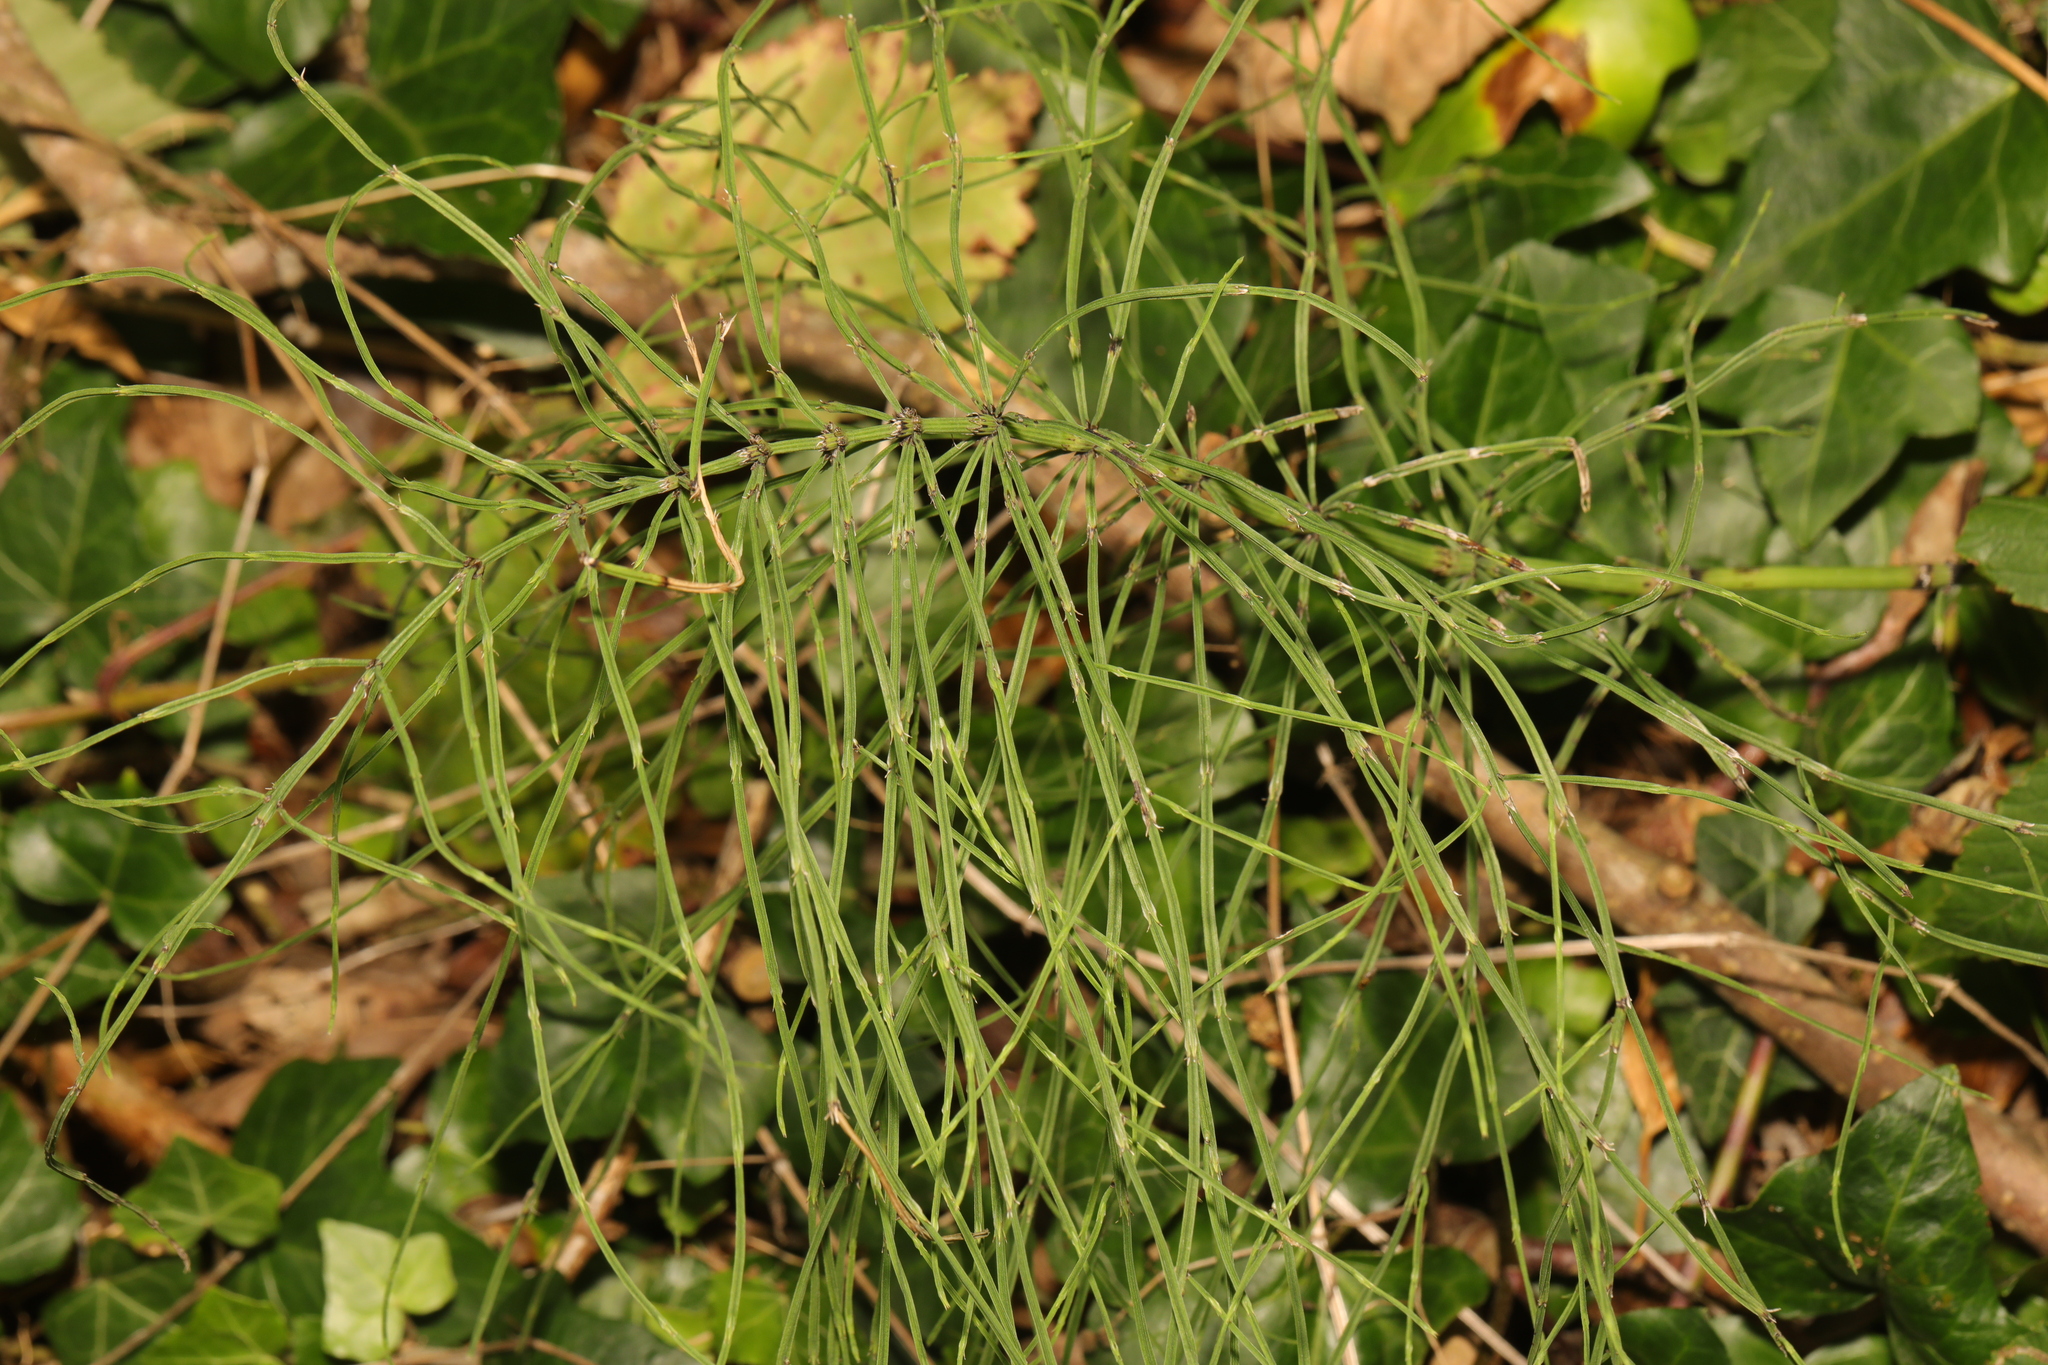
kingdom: Plantae
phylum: Tracheophyta
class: Polypodiopsida
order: Equisetales
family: Equisetaceae
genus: Equisetum
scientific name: Equisetum arvense
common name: Field horsetail
